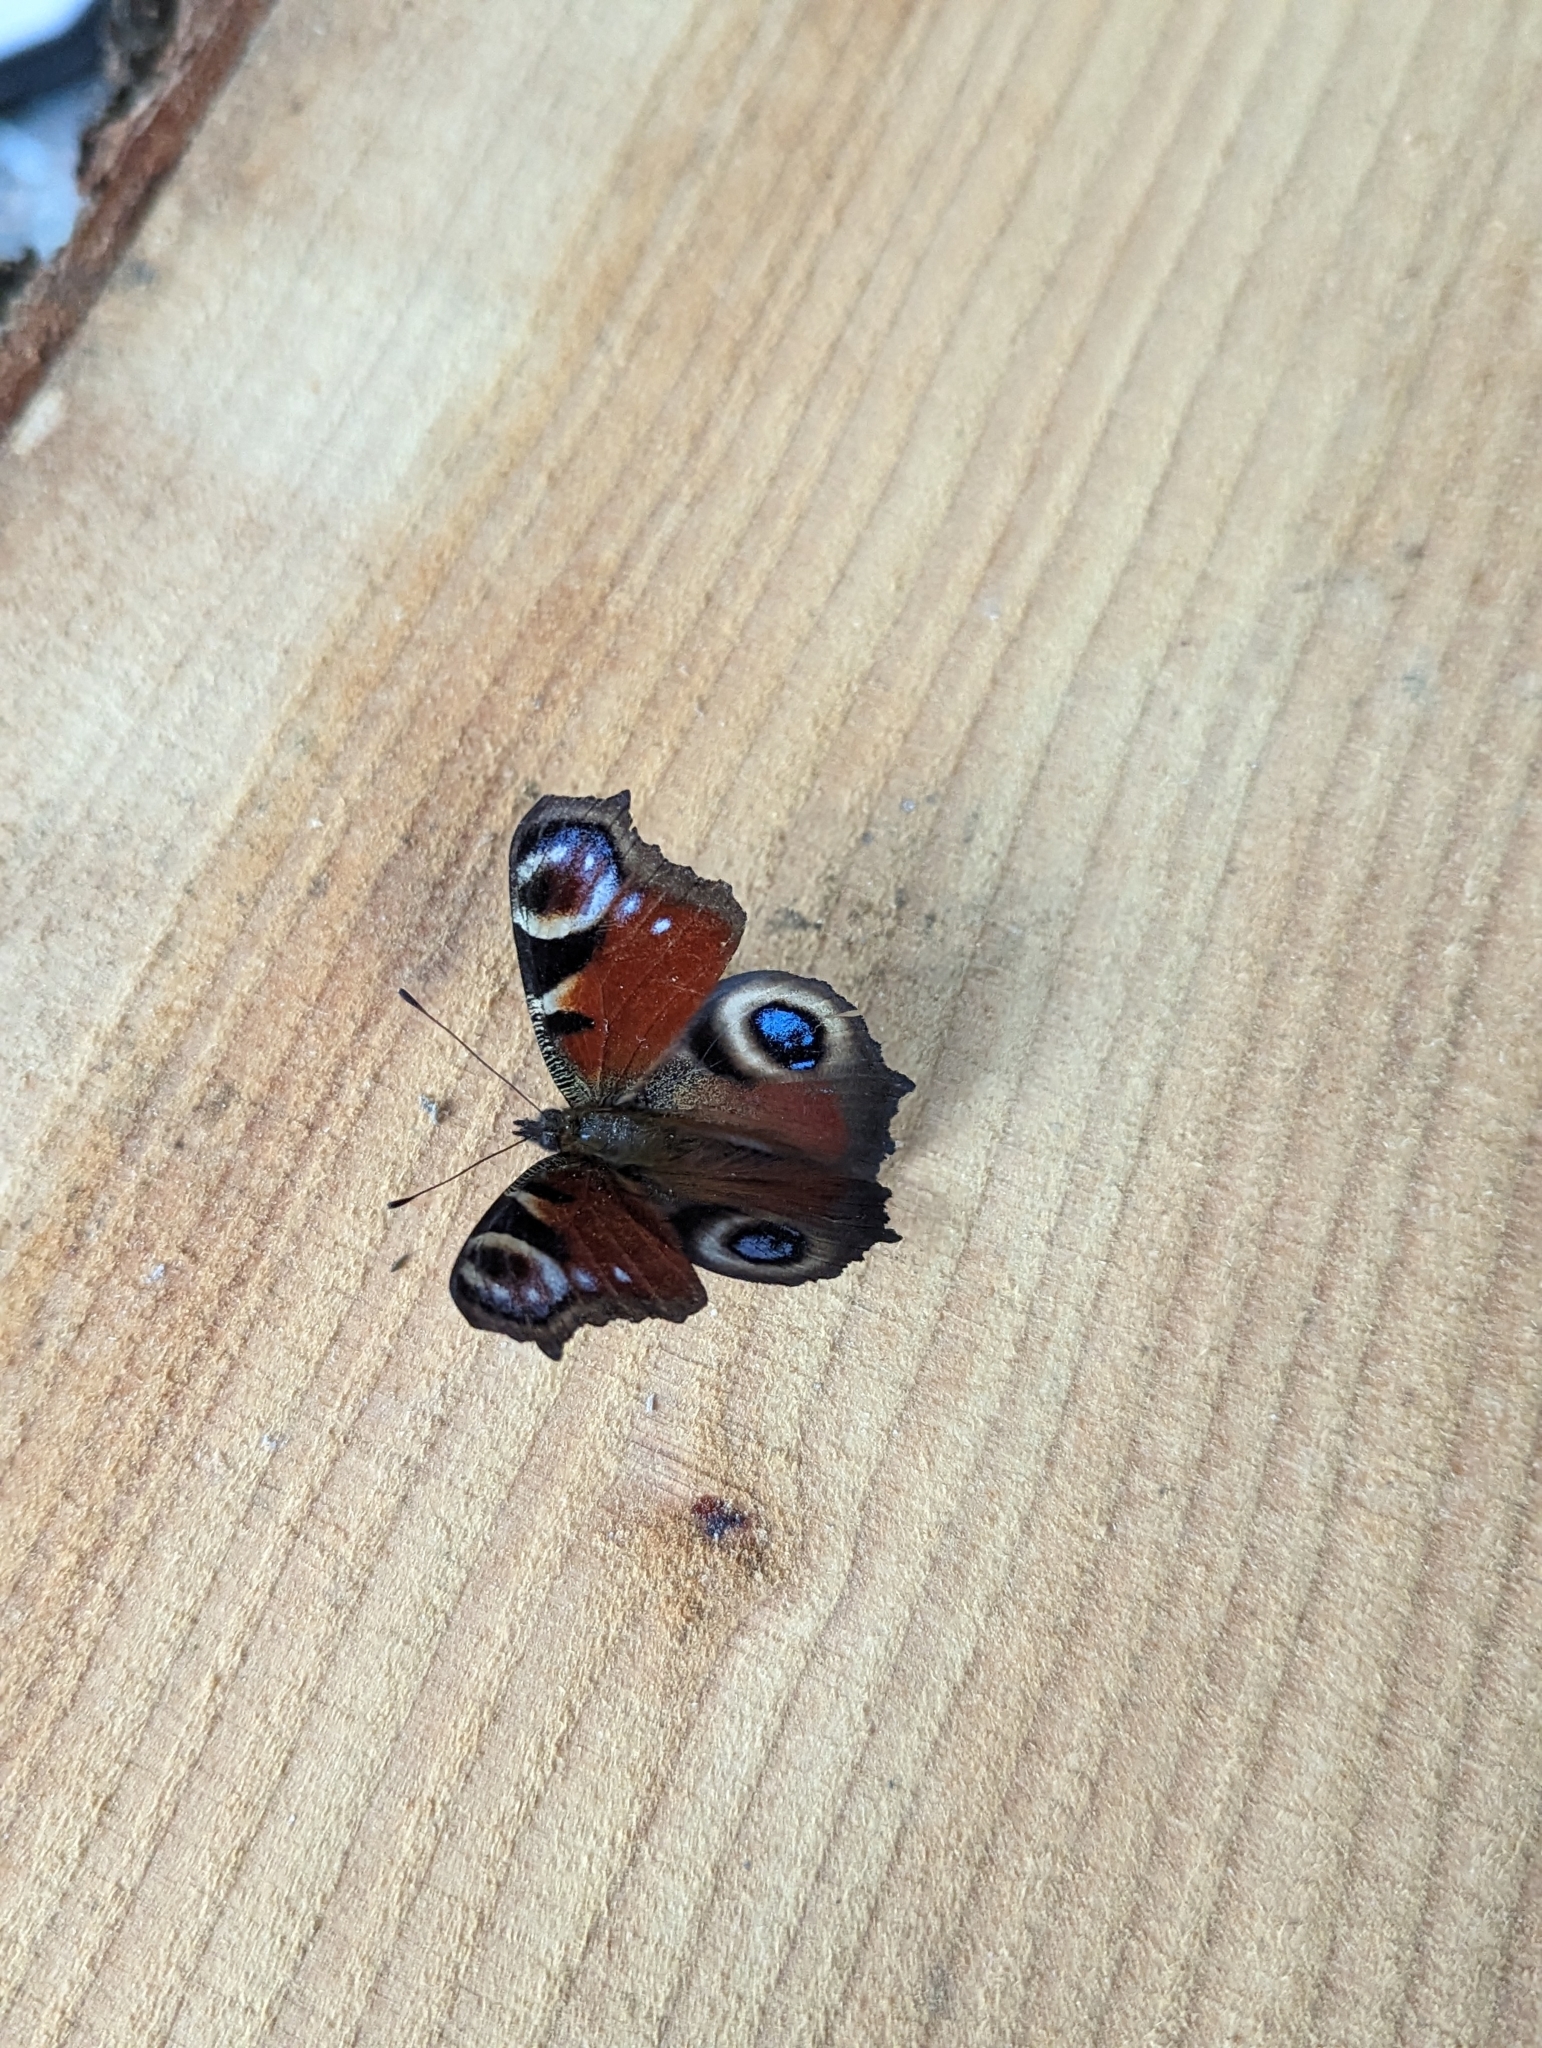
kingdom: Animalia
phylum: Arthropoda
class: Insecta
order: Lepidoptera
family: Nymphalidae
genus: Aglais
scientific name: Aglais io
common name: Peacock
